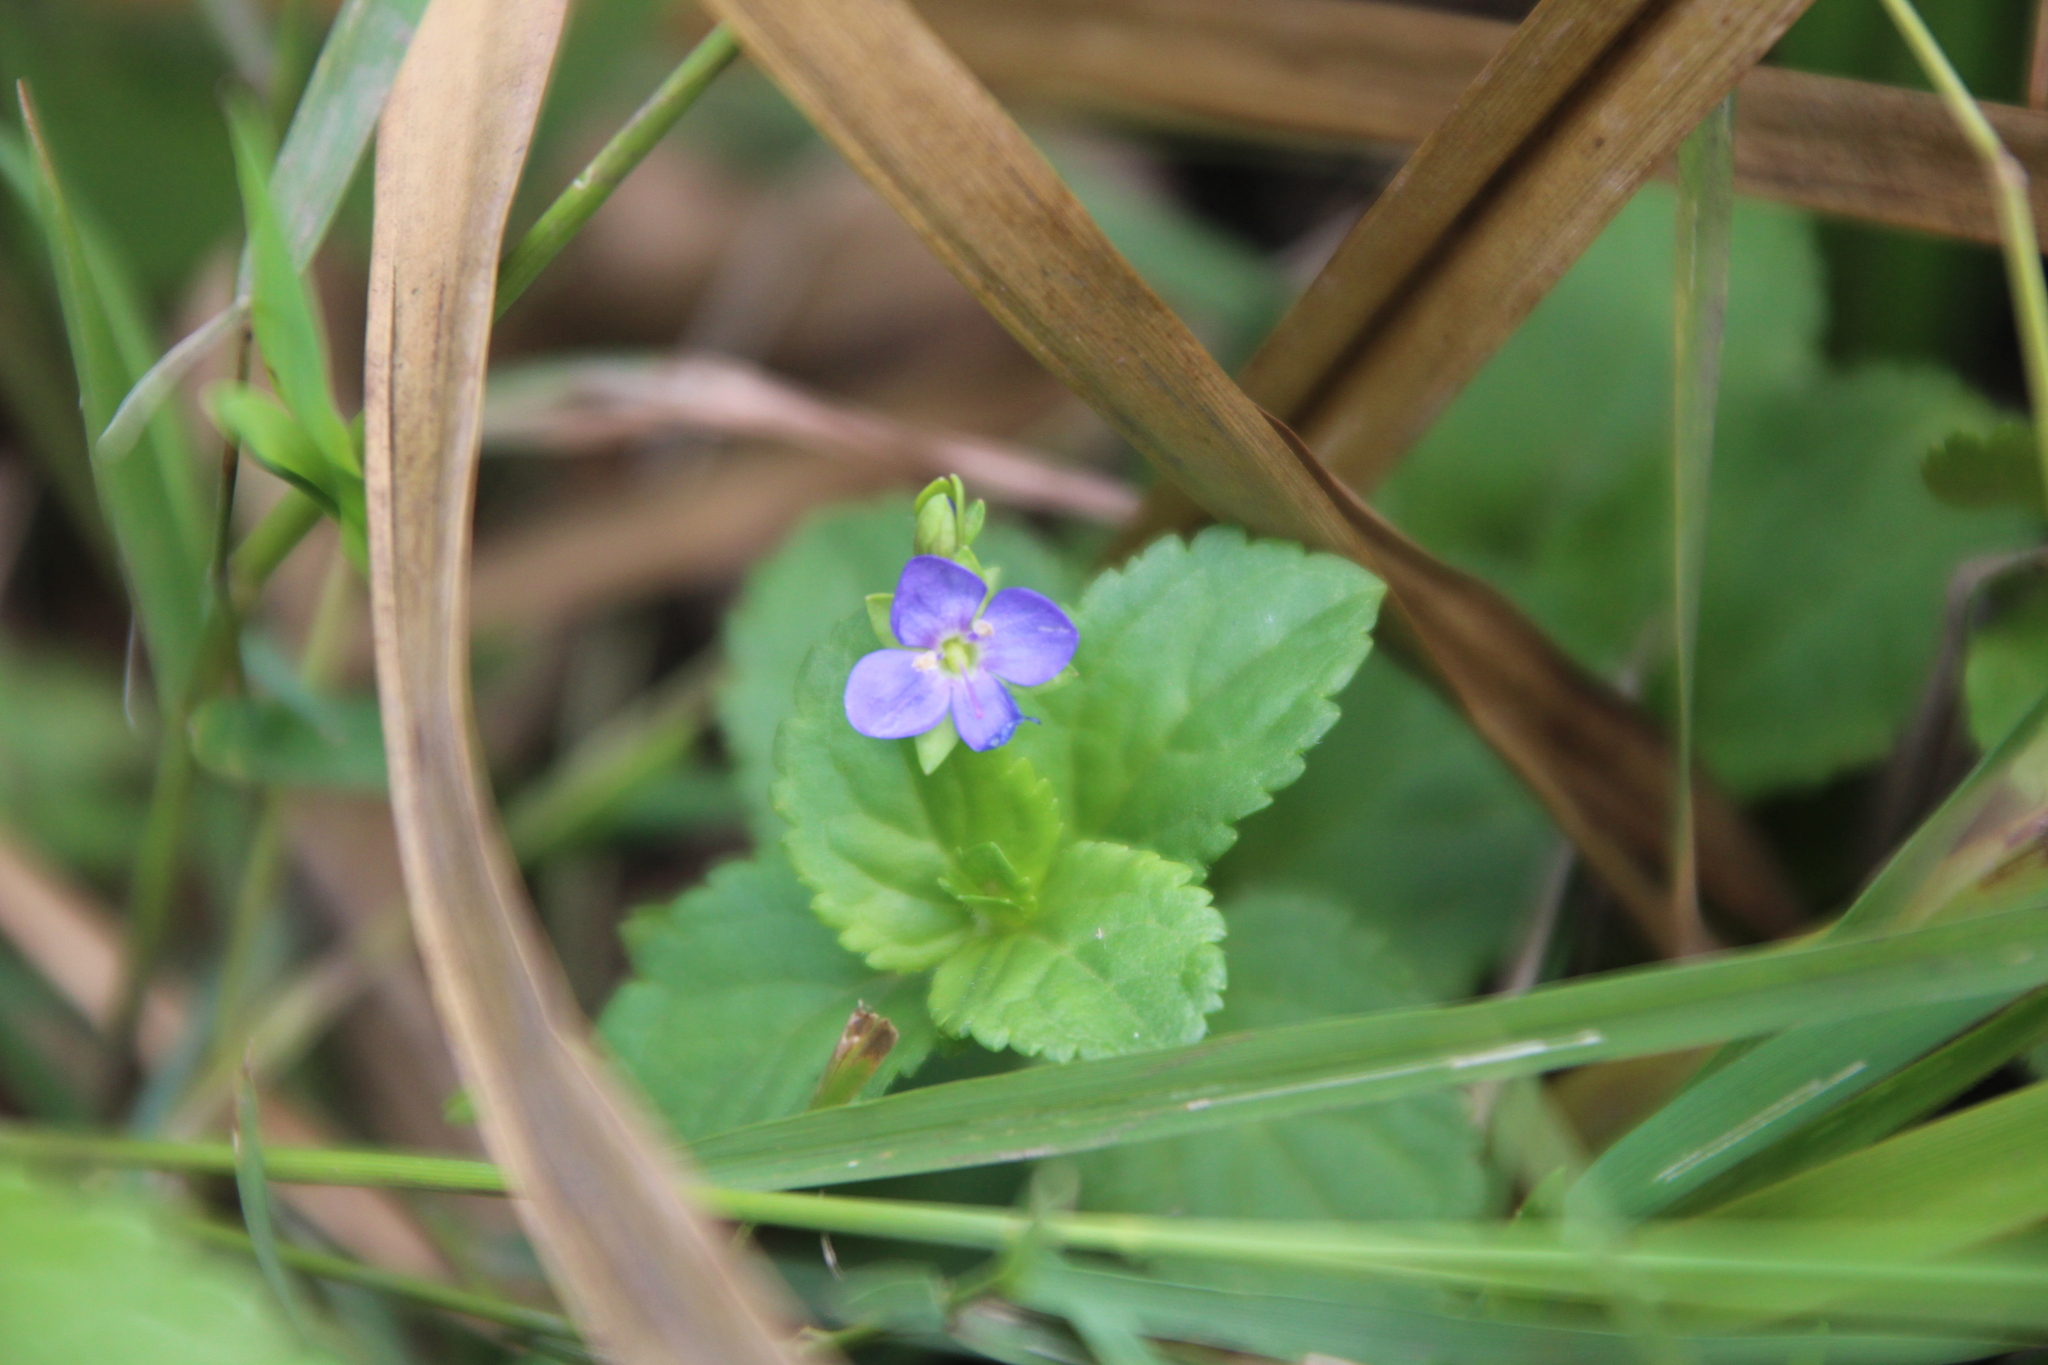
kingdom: Plantae
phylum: Tracheophyta
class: Magnoliopsida
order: Lamiales
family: Plantaginaceae
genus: Veronica
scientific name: Veronica abyssinica
